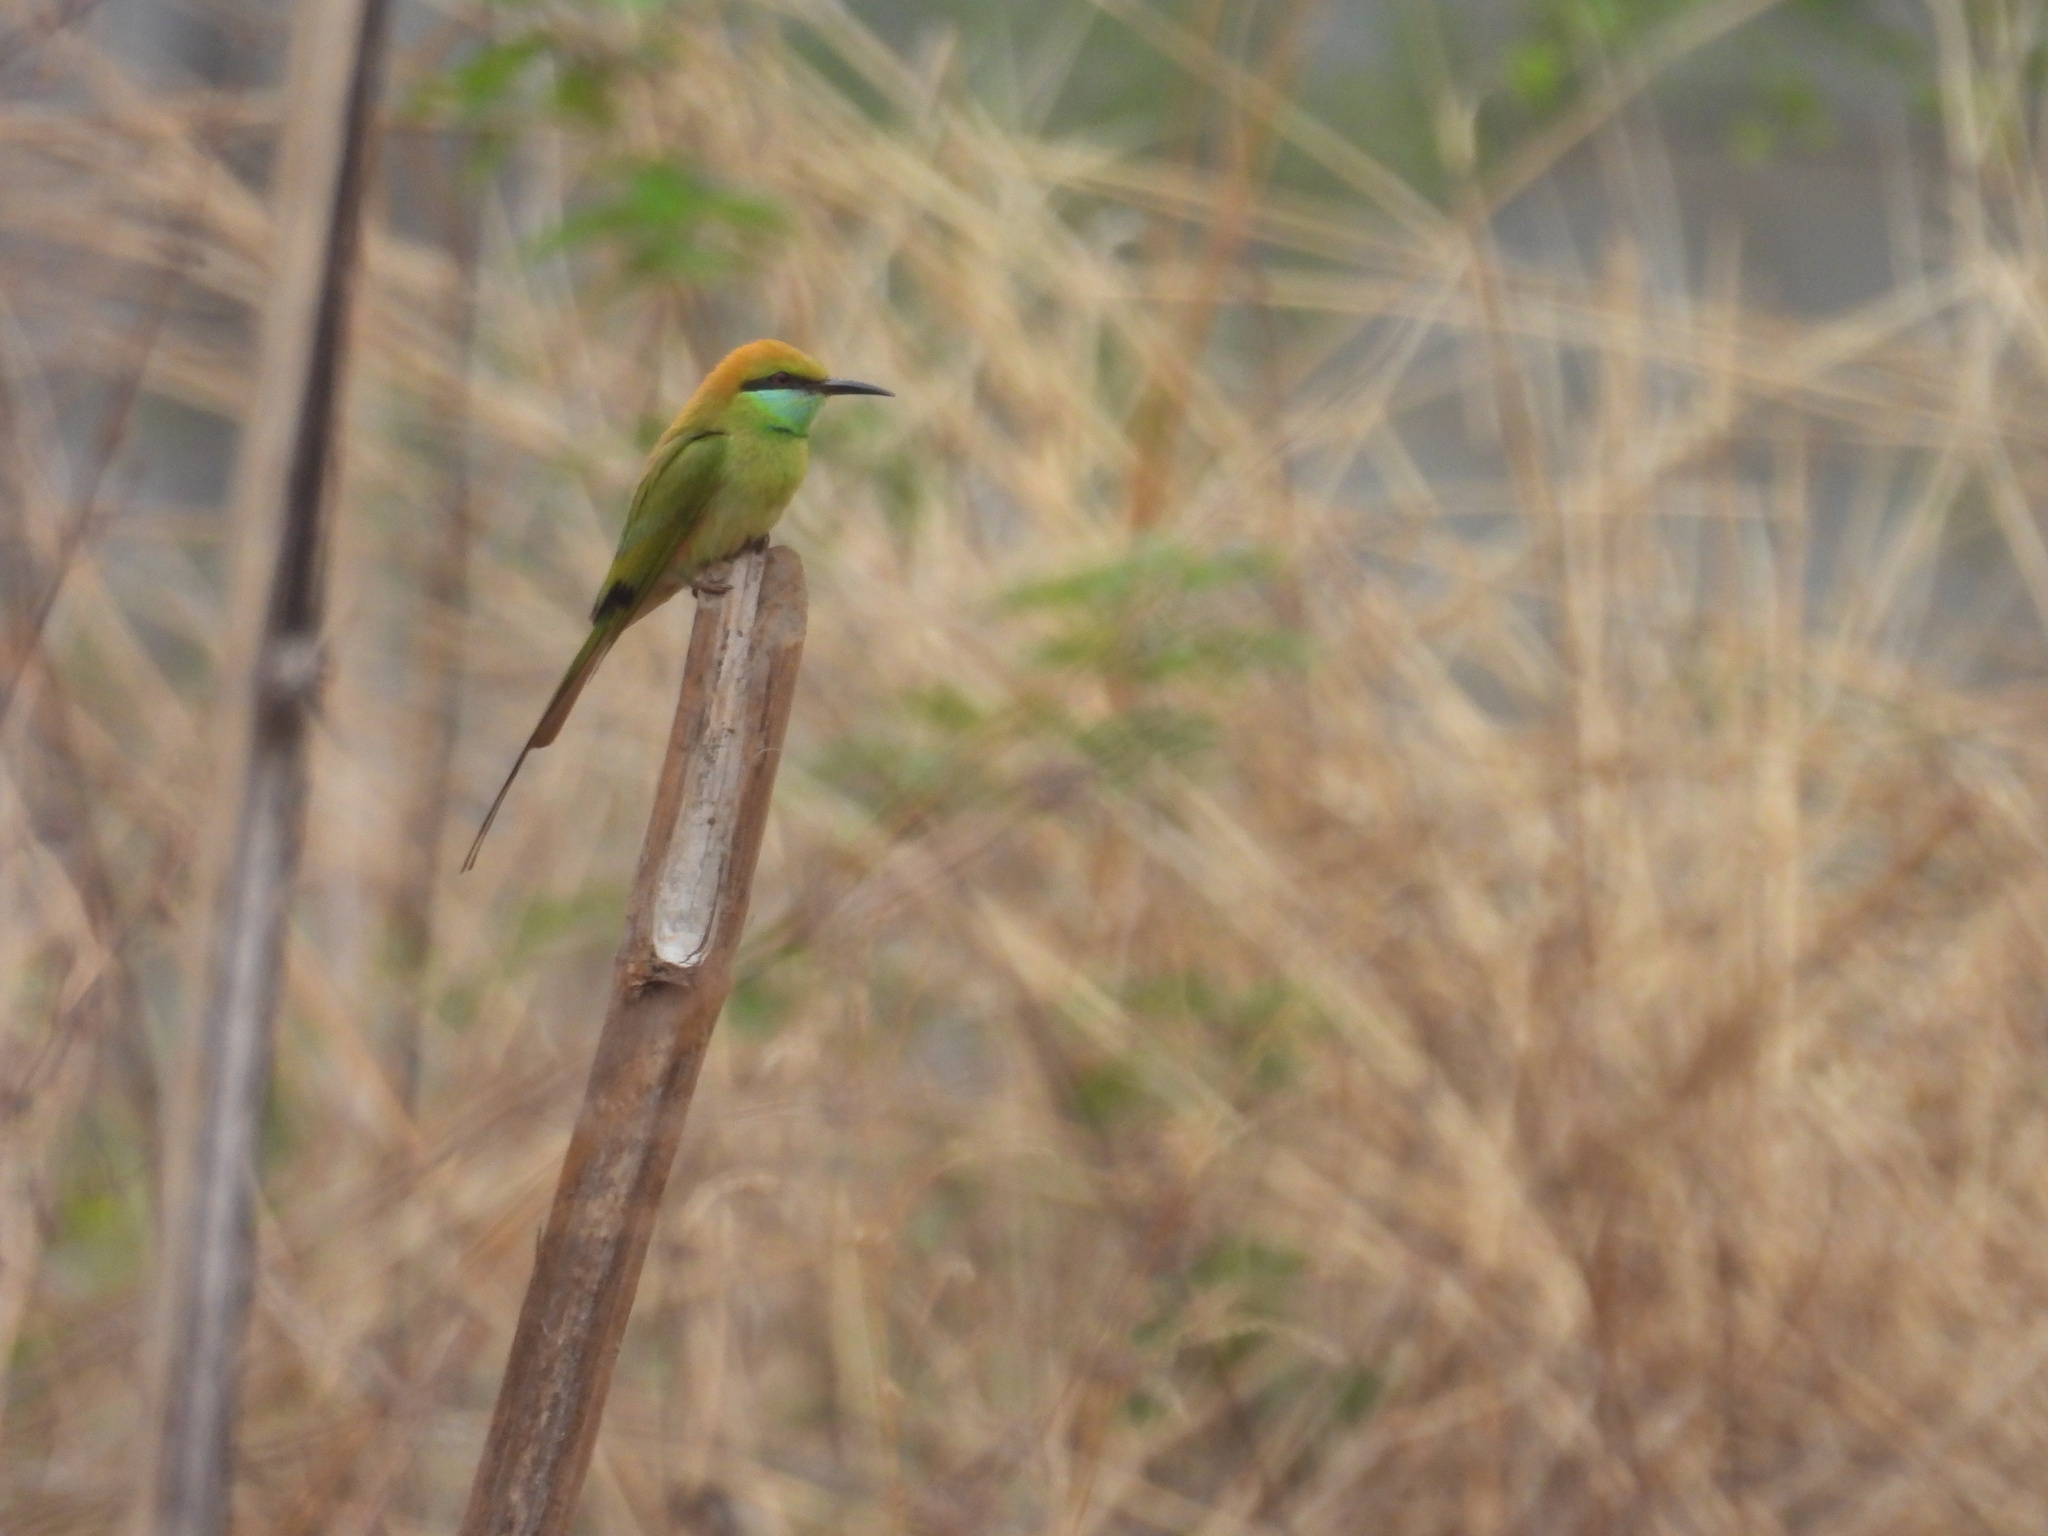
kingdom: Animalia
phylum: Chordata
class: Aves
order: Coraciiformes
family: Meropidae
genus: Merops
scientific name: Merops orientalis
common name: Green bee-eater
